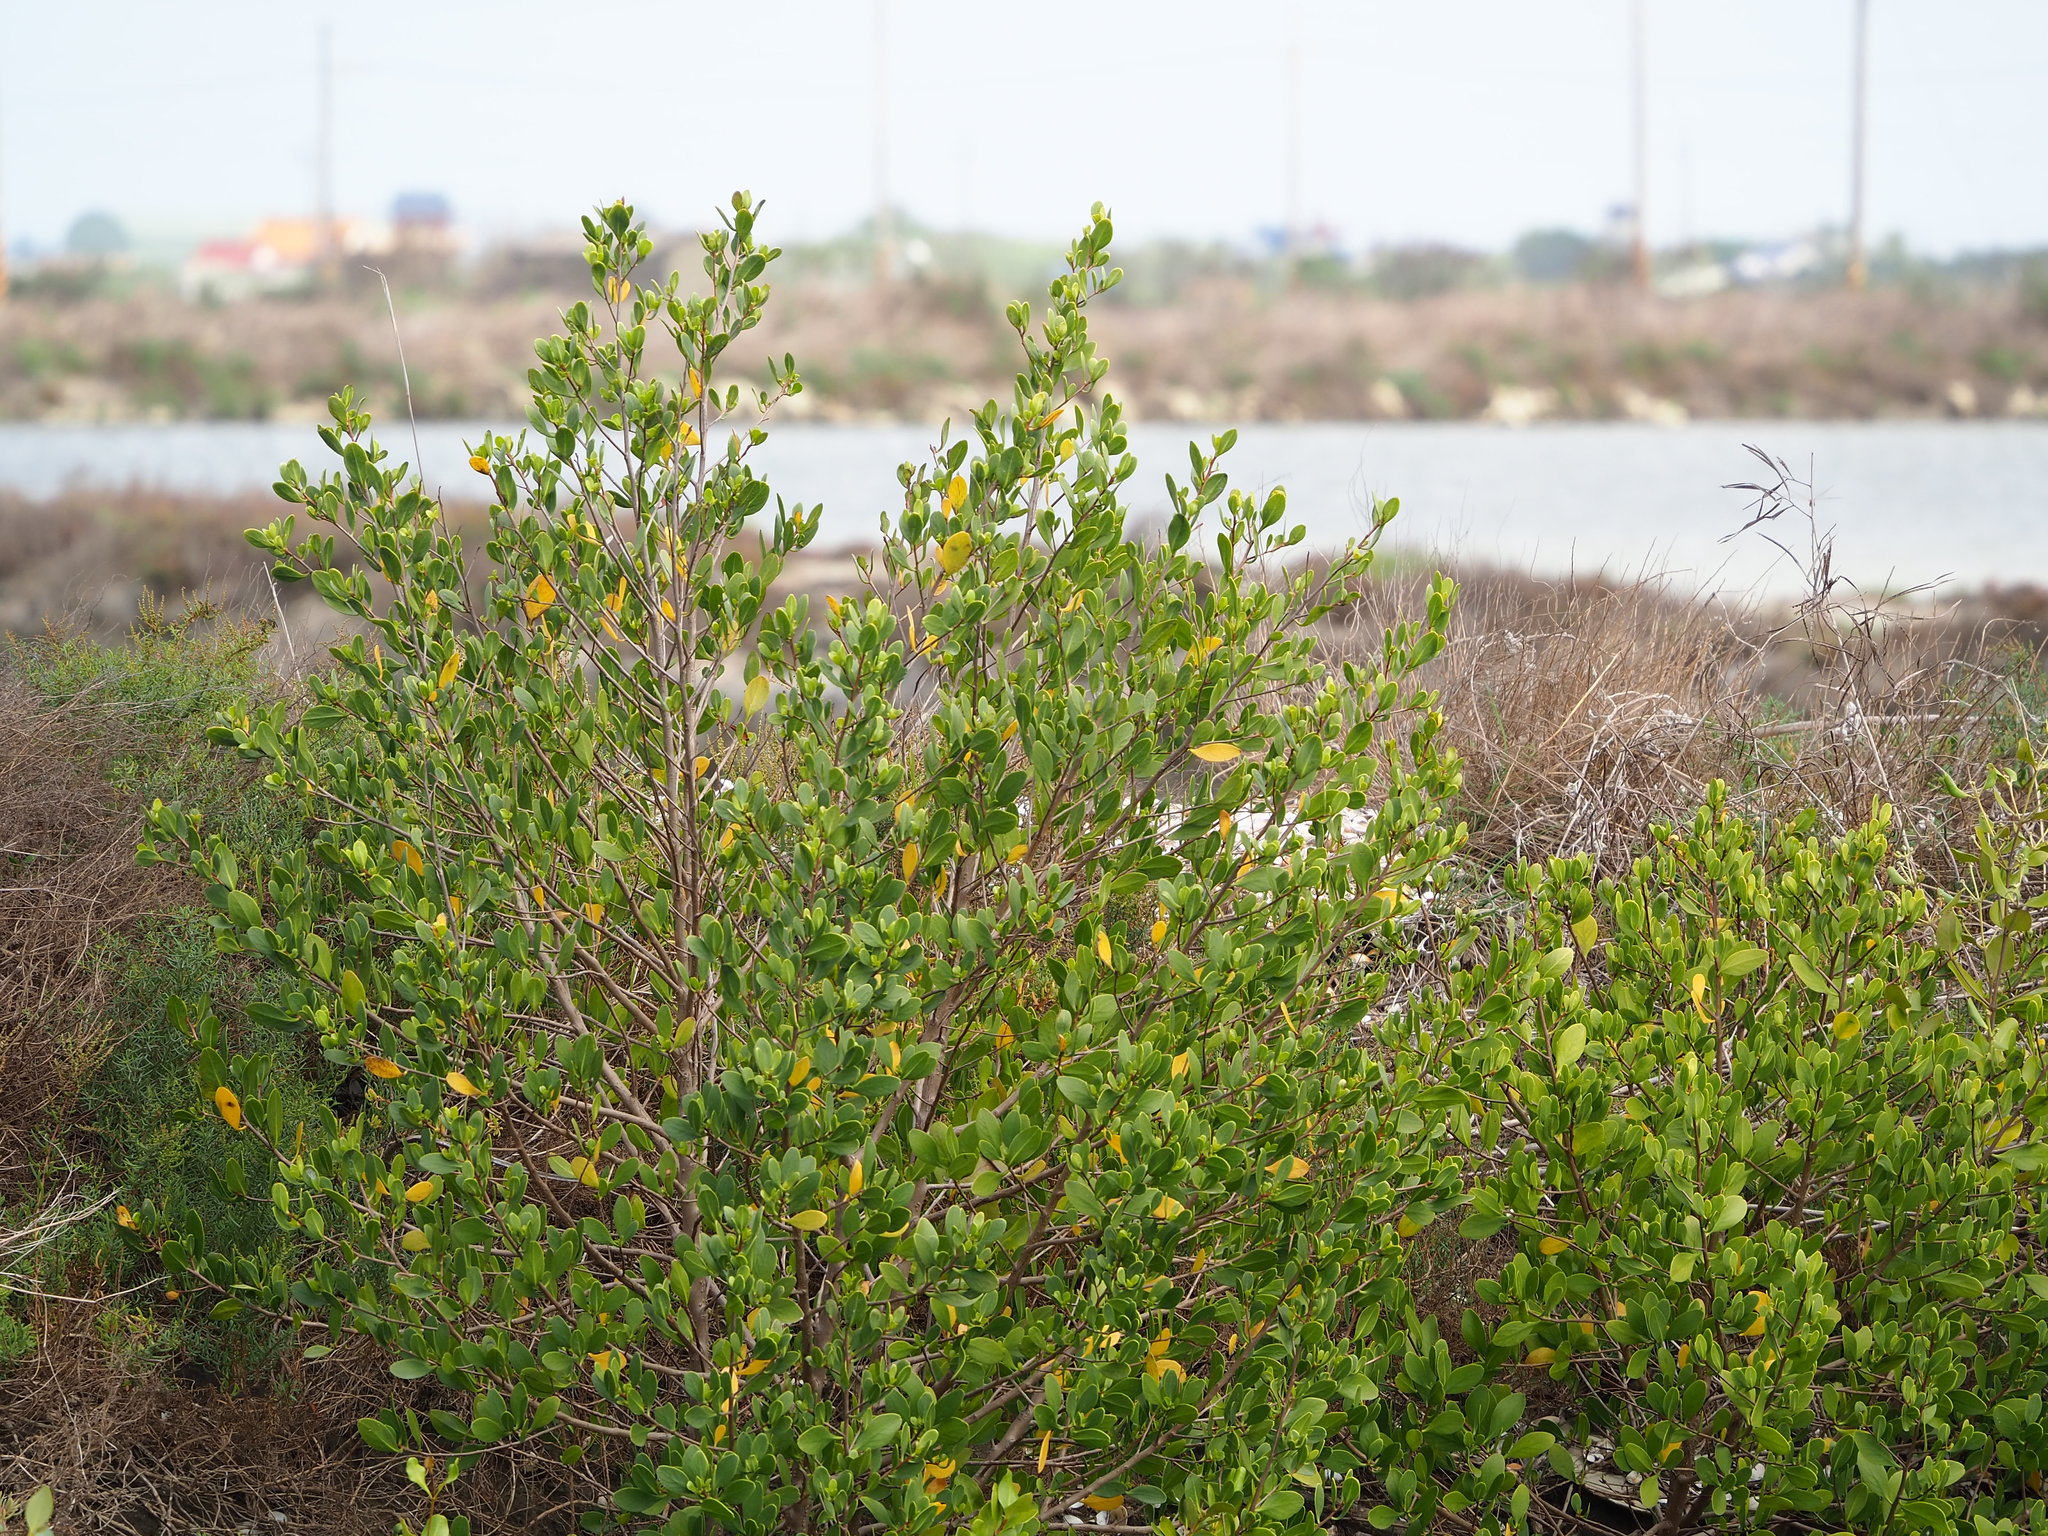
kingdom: Plantae
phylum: Tracheophyta
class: Magnoliopsida
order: Myrtales
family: Combretaceae
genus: Lumnitzera
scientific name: Lumnitzera racemosa
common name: White-flowered black mangrove
